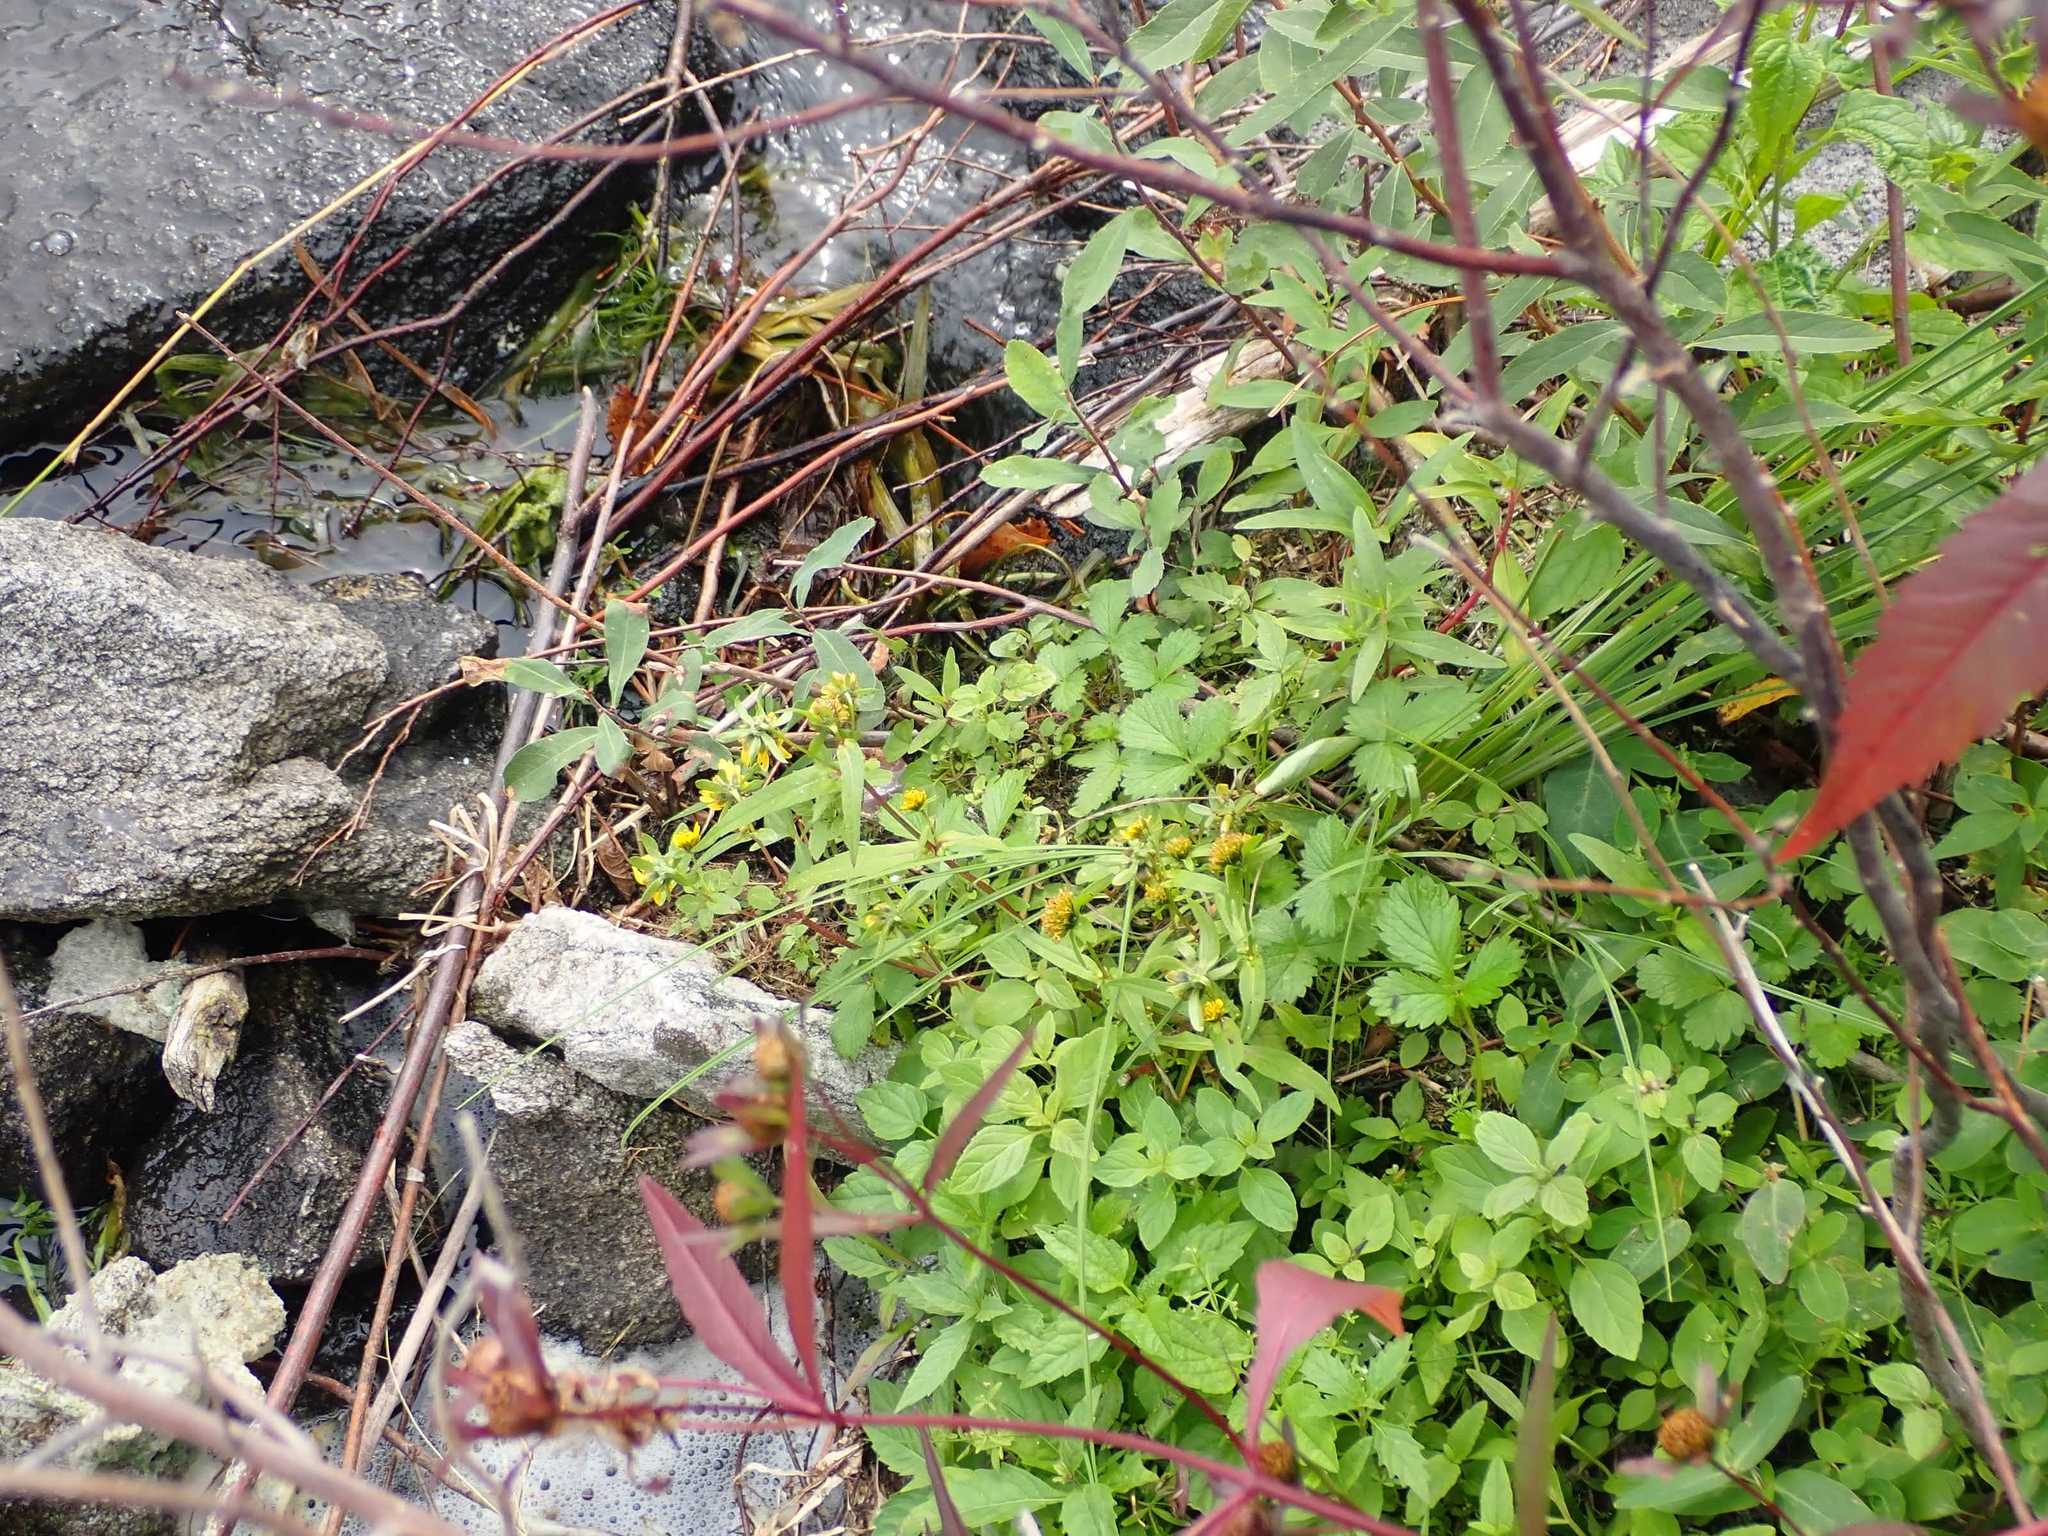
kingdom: Plantae
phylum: Tracheophyta
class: Magnoliopsida
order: Asterales
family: Asteraceae
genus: Bidens
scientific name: Bidens cernua
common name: Nodding bur-marigold
